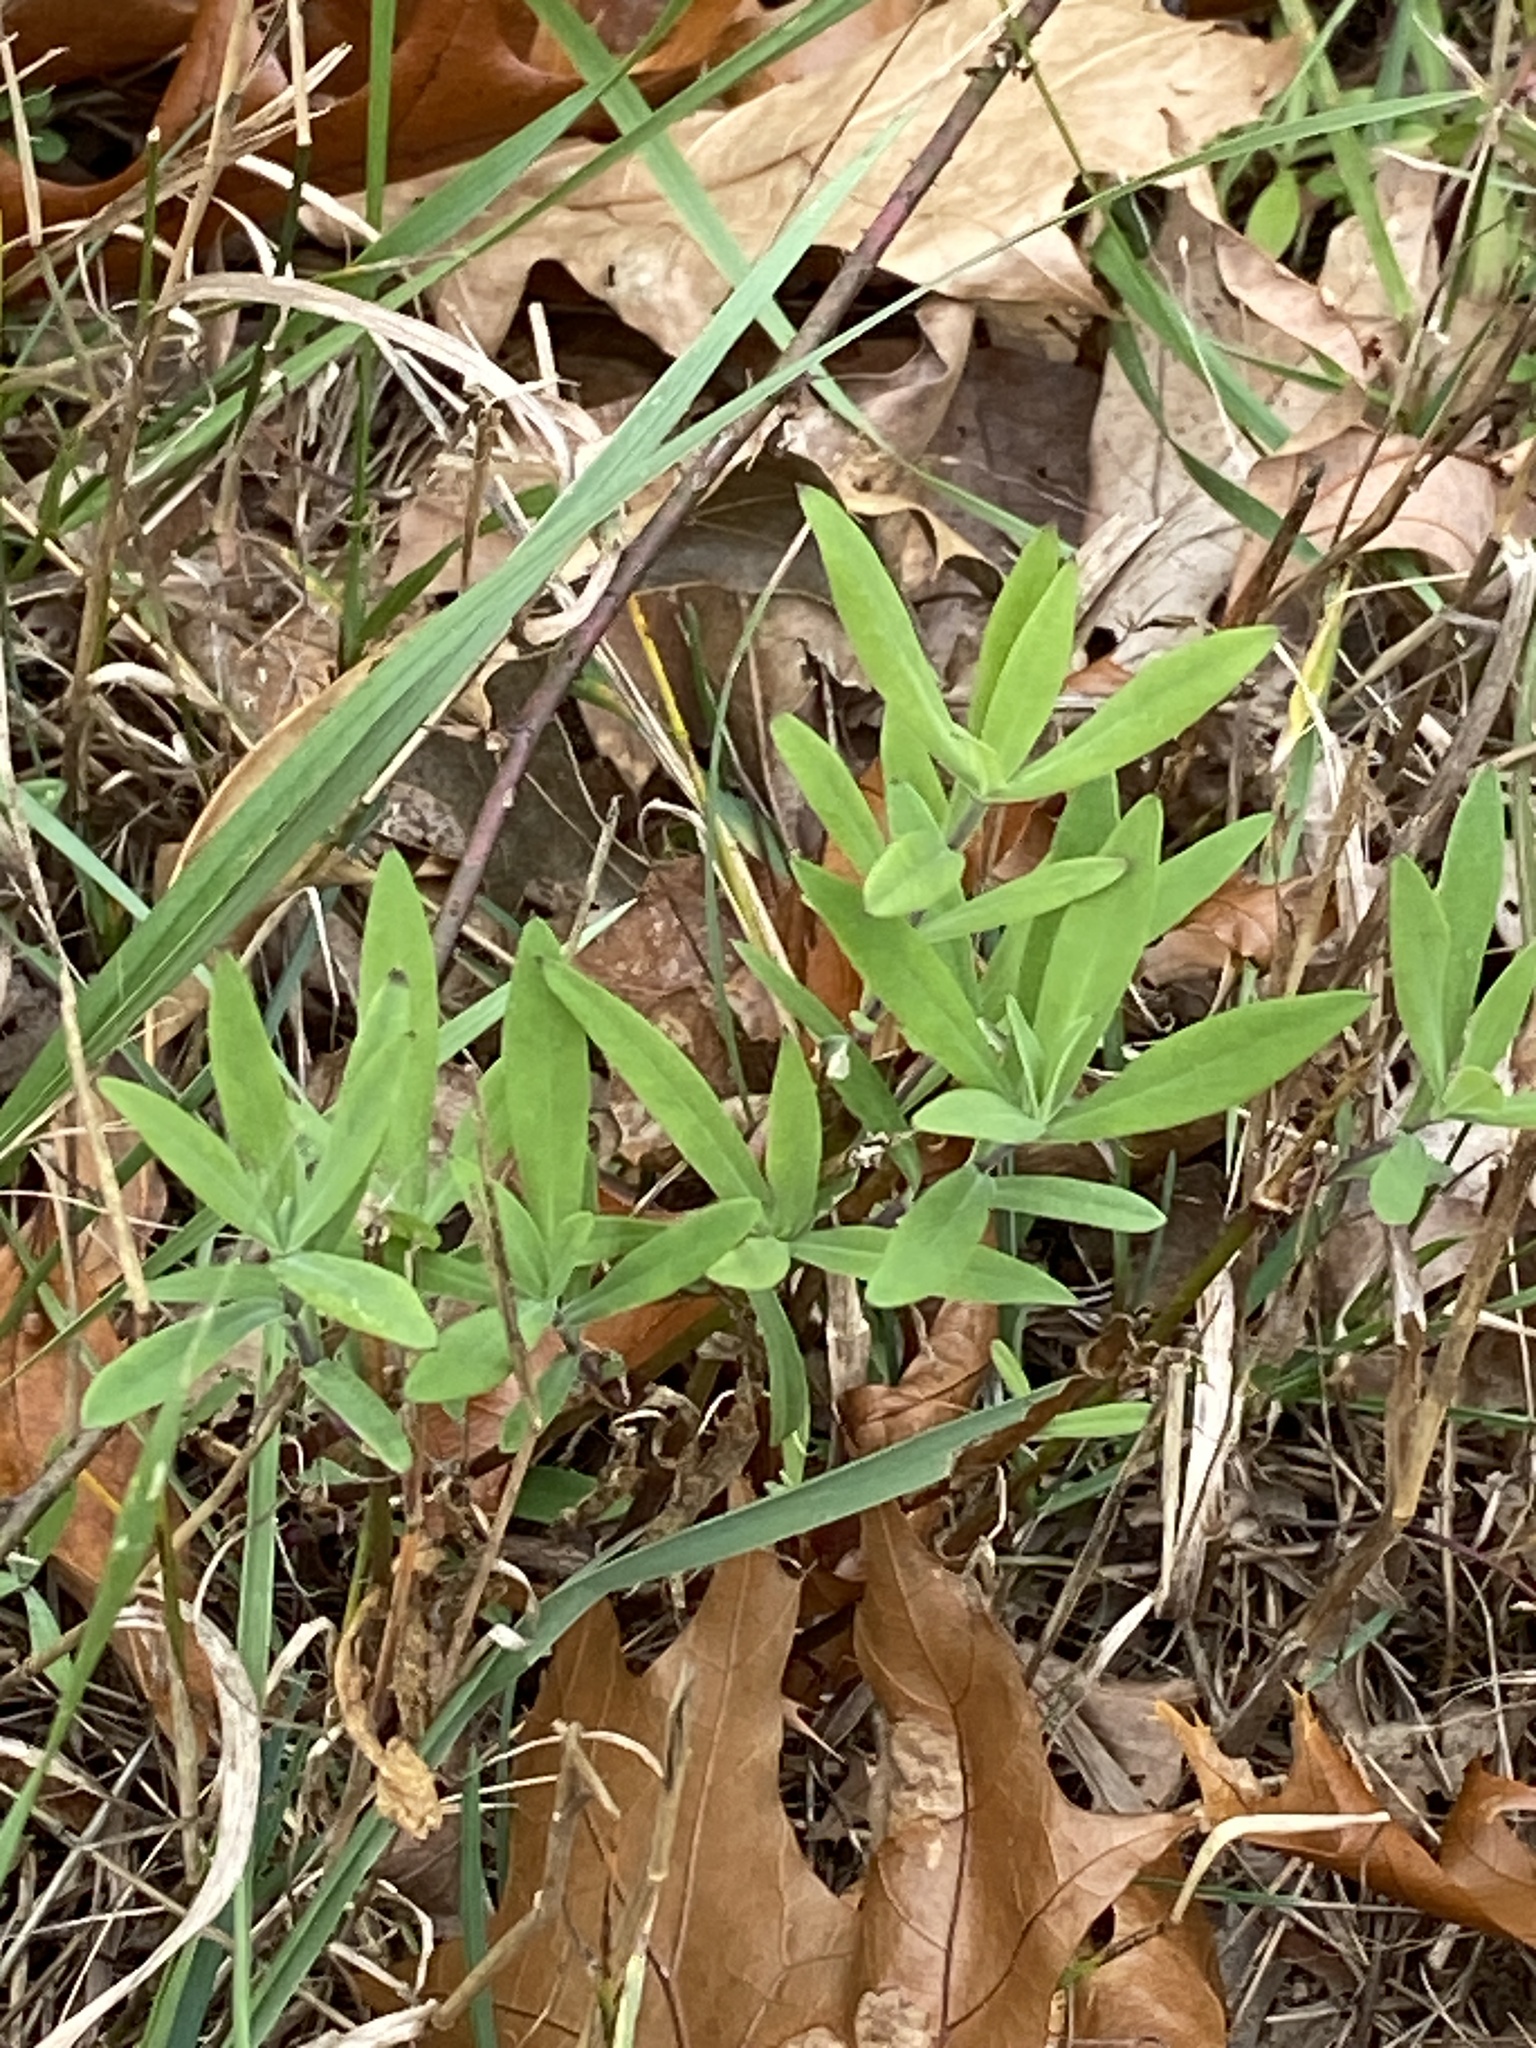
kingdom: Plantae
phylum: Tracheophyta
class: Magnoliopsida
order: Caryophyllales
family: Caryophyllaceae
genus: Silene
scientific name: Silene vulgaris
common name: Bladder campion
